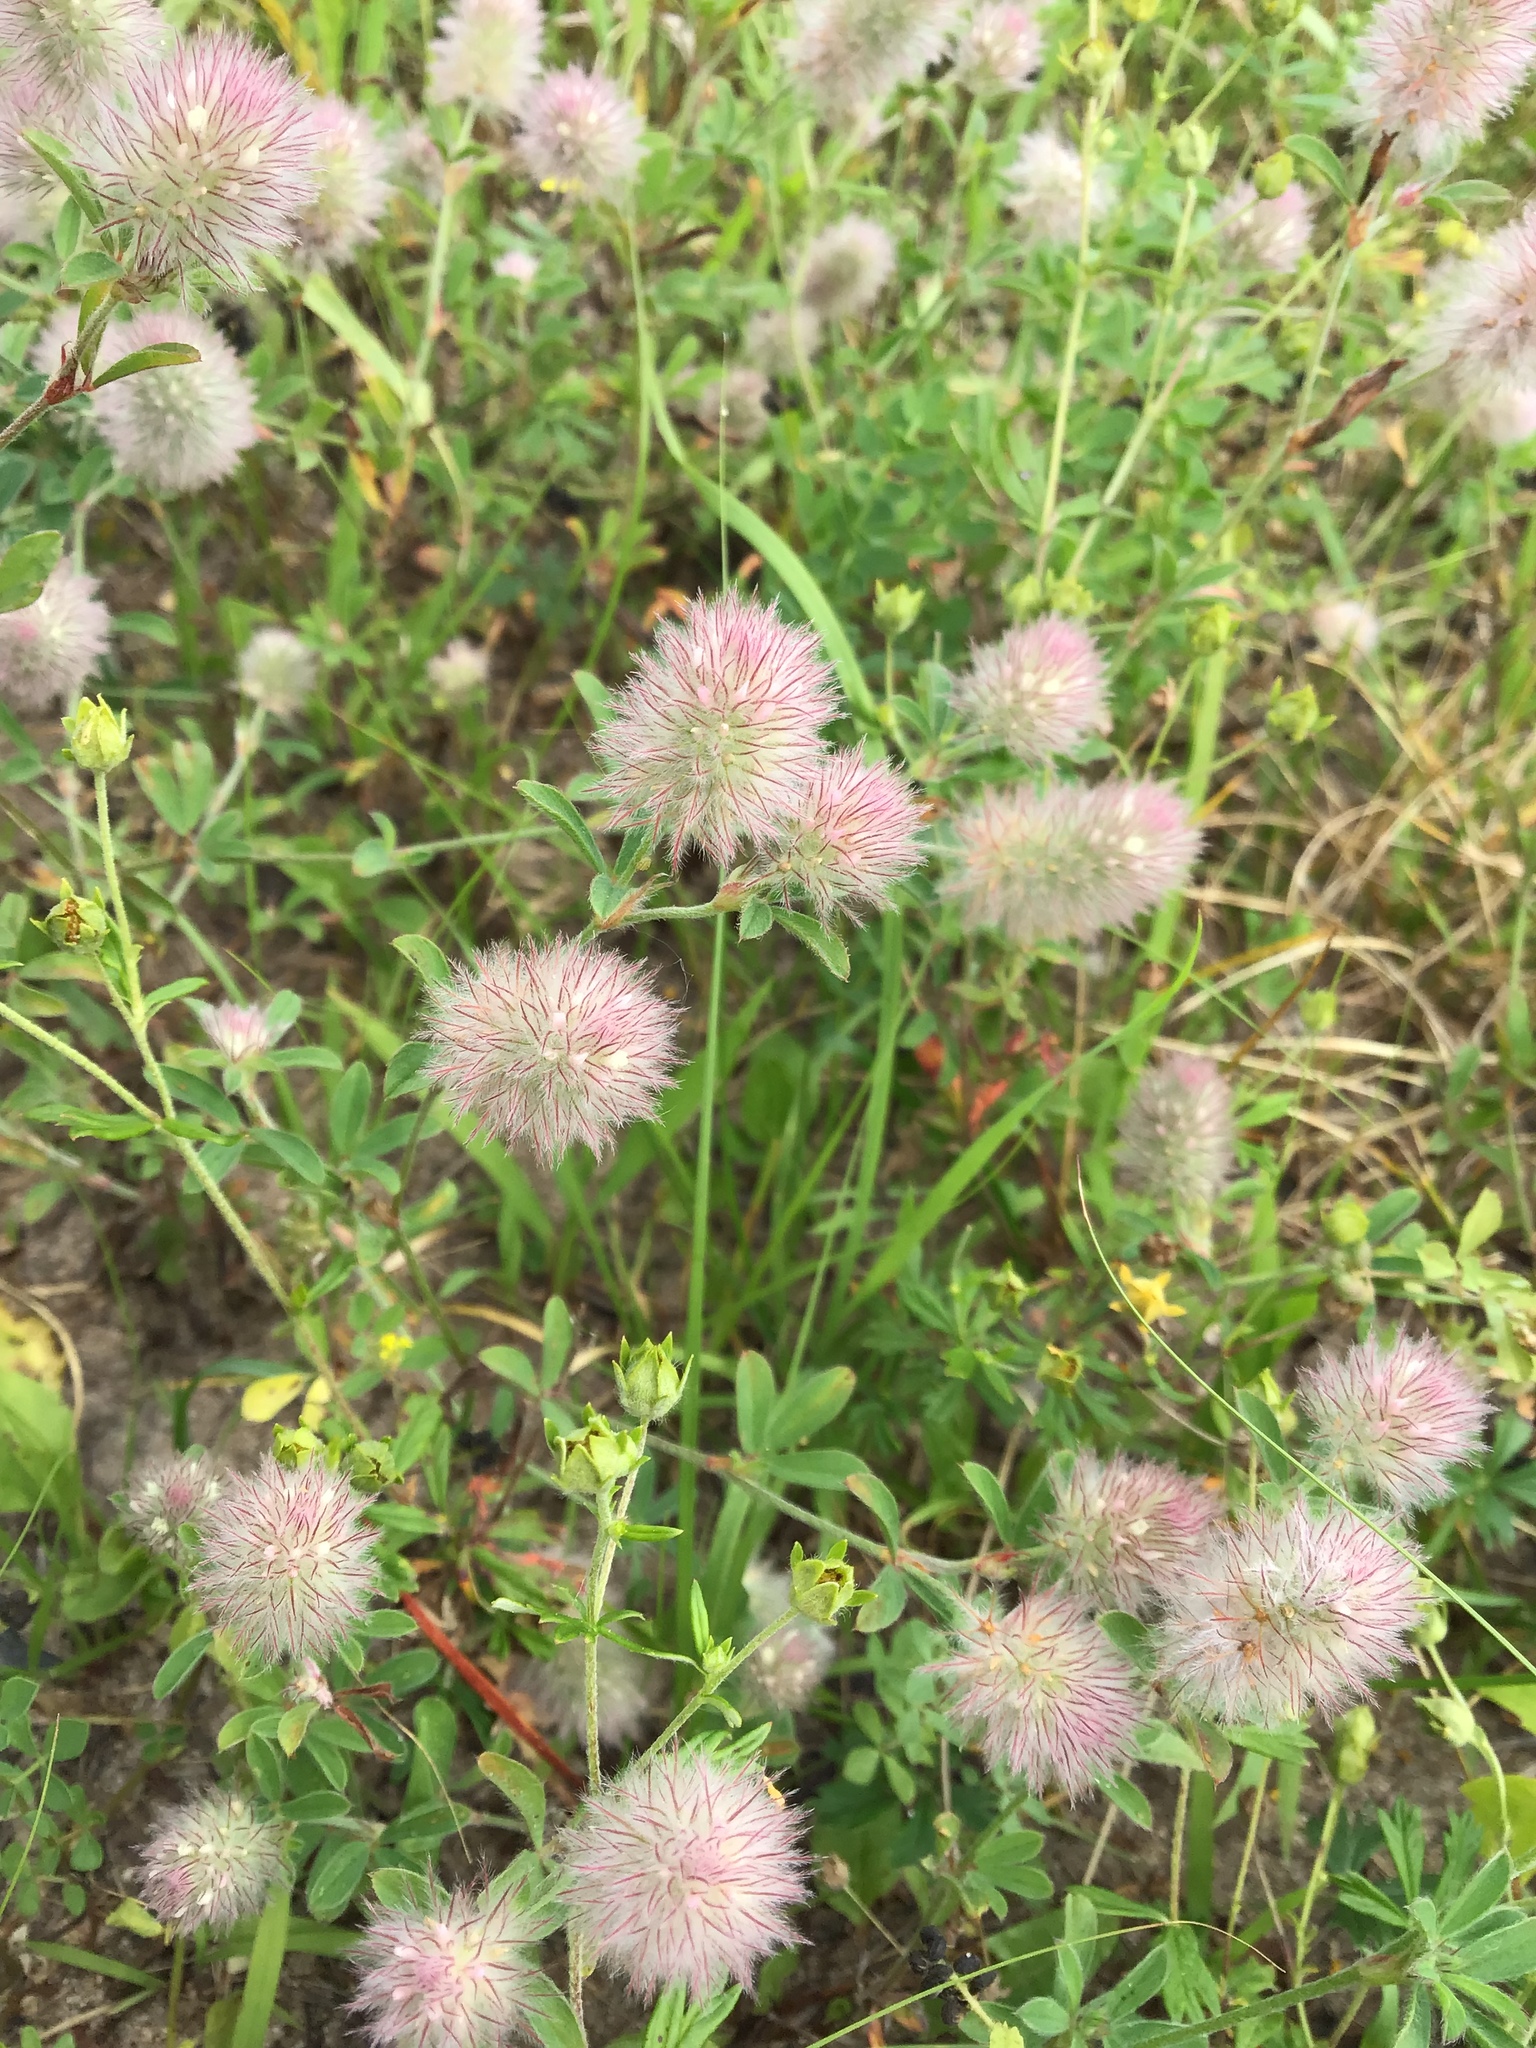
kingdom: Plantae
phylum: Tracheophyta
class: Magnoliopsida
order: Fabales
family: Fabaceae
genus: Trifolium
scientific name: Trifolium arvense
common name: Hare's-foot clover
